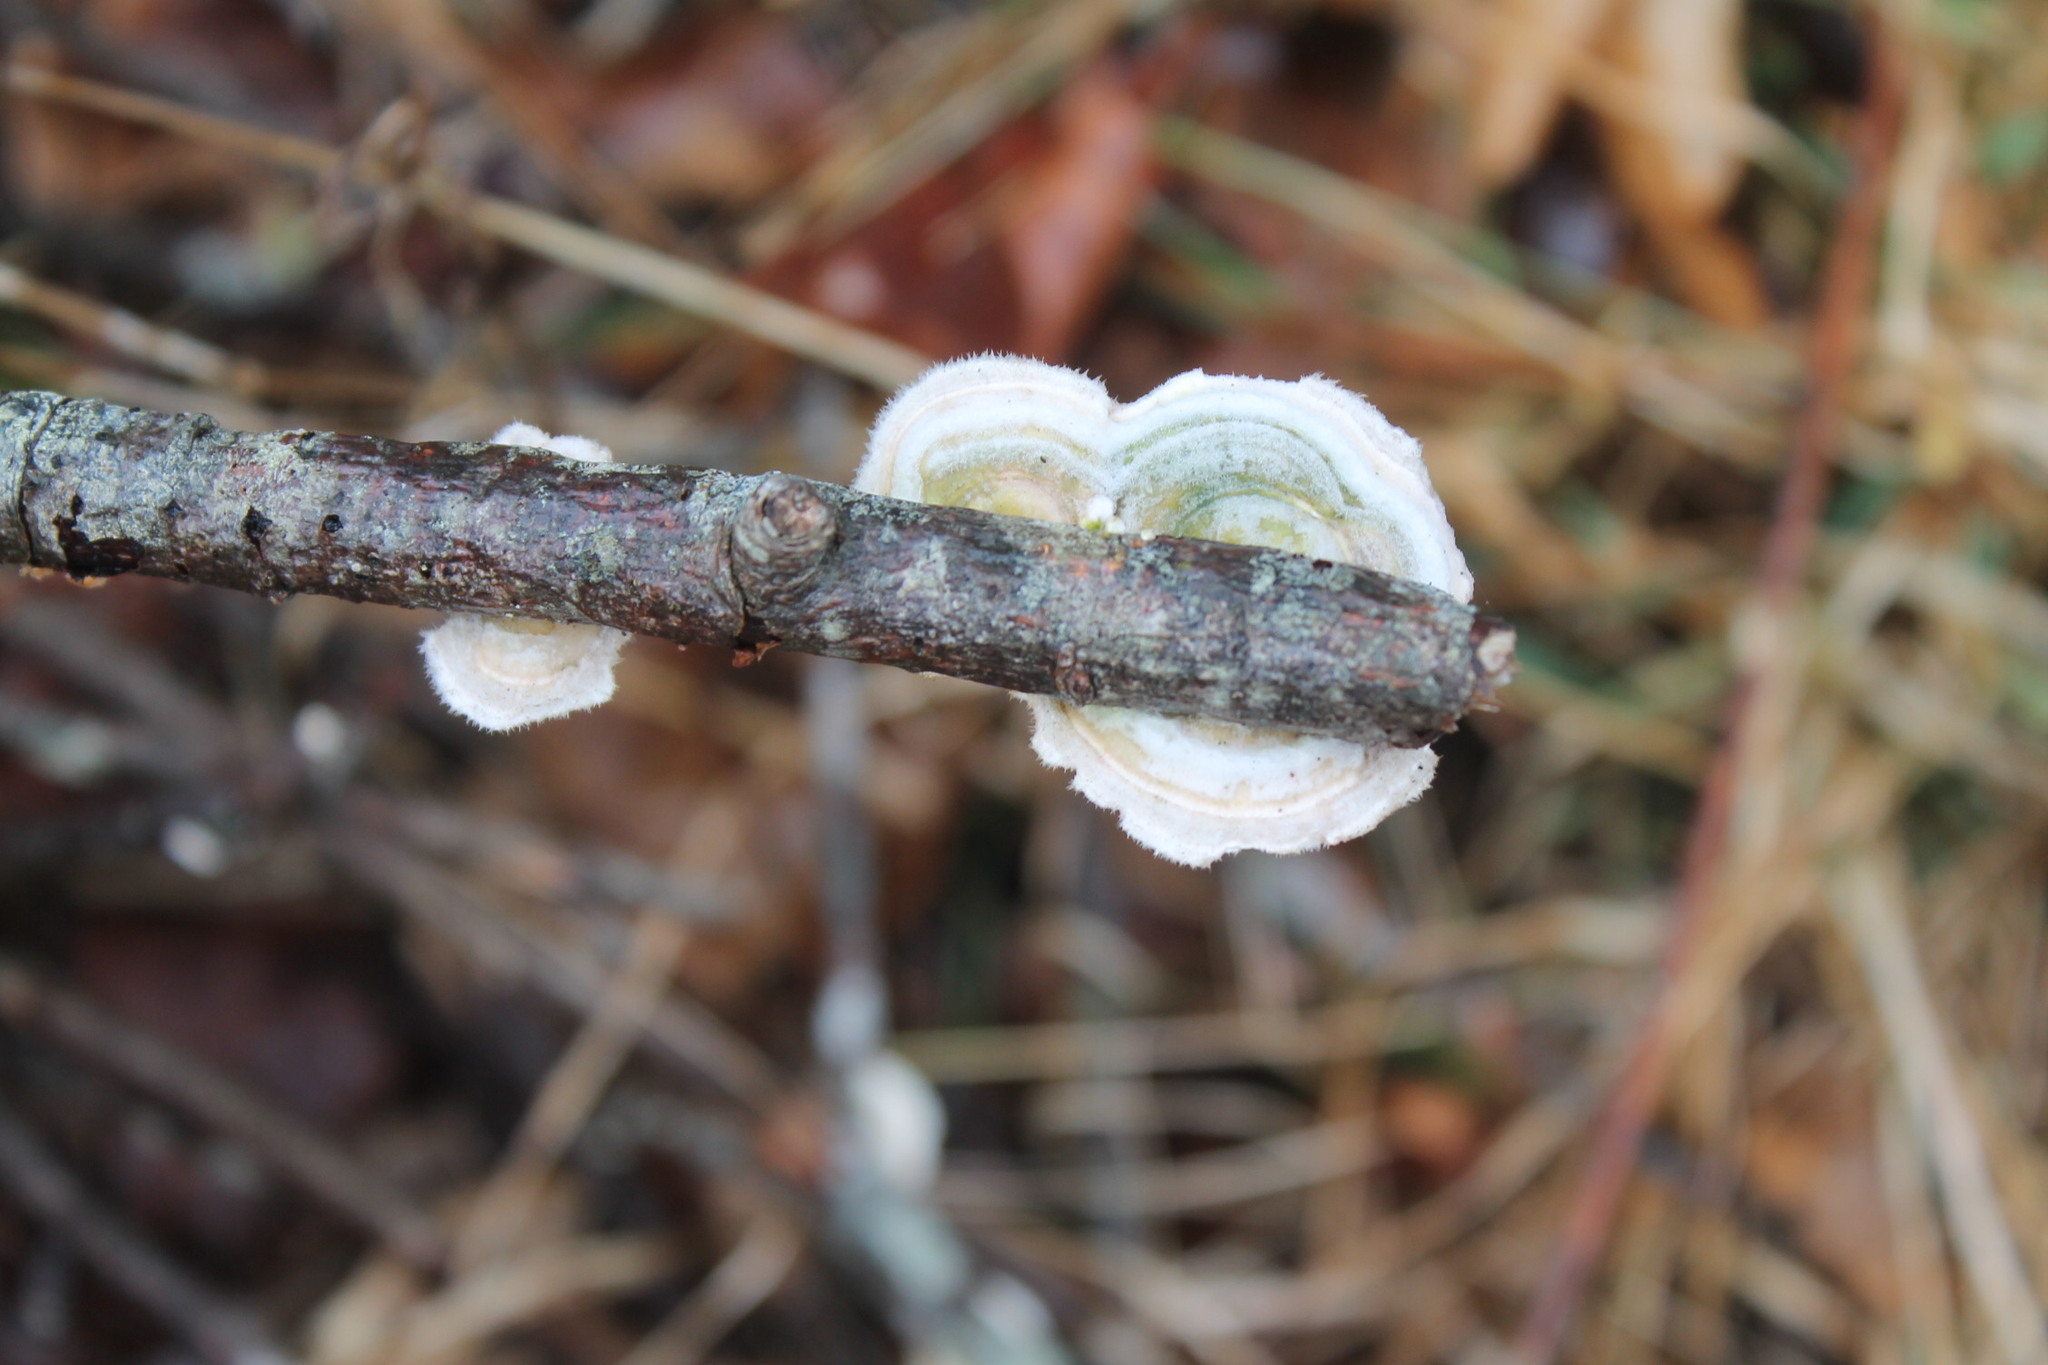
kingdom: Fungi
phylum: Basidiomycota
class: Agaricomycetes
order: Polyporales
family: Polyporaceae
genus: Trametes
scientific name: Trametes hirsuta
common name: Hairy bracket
